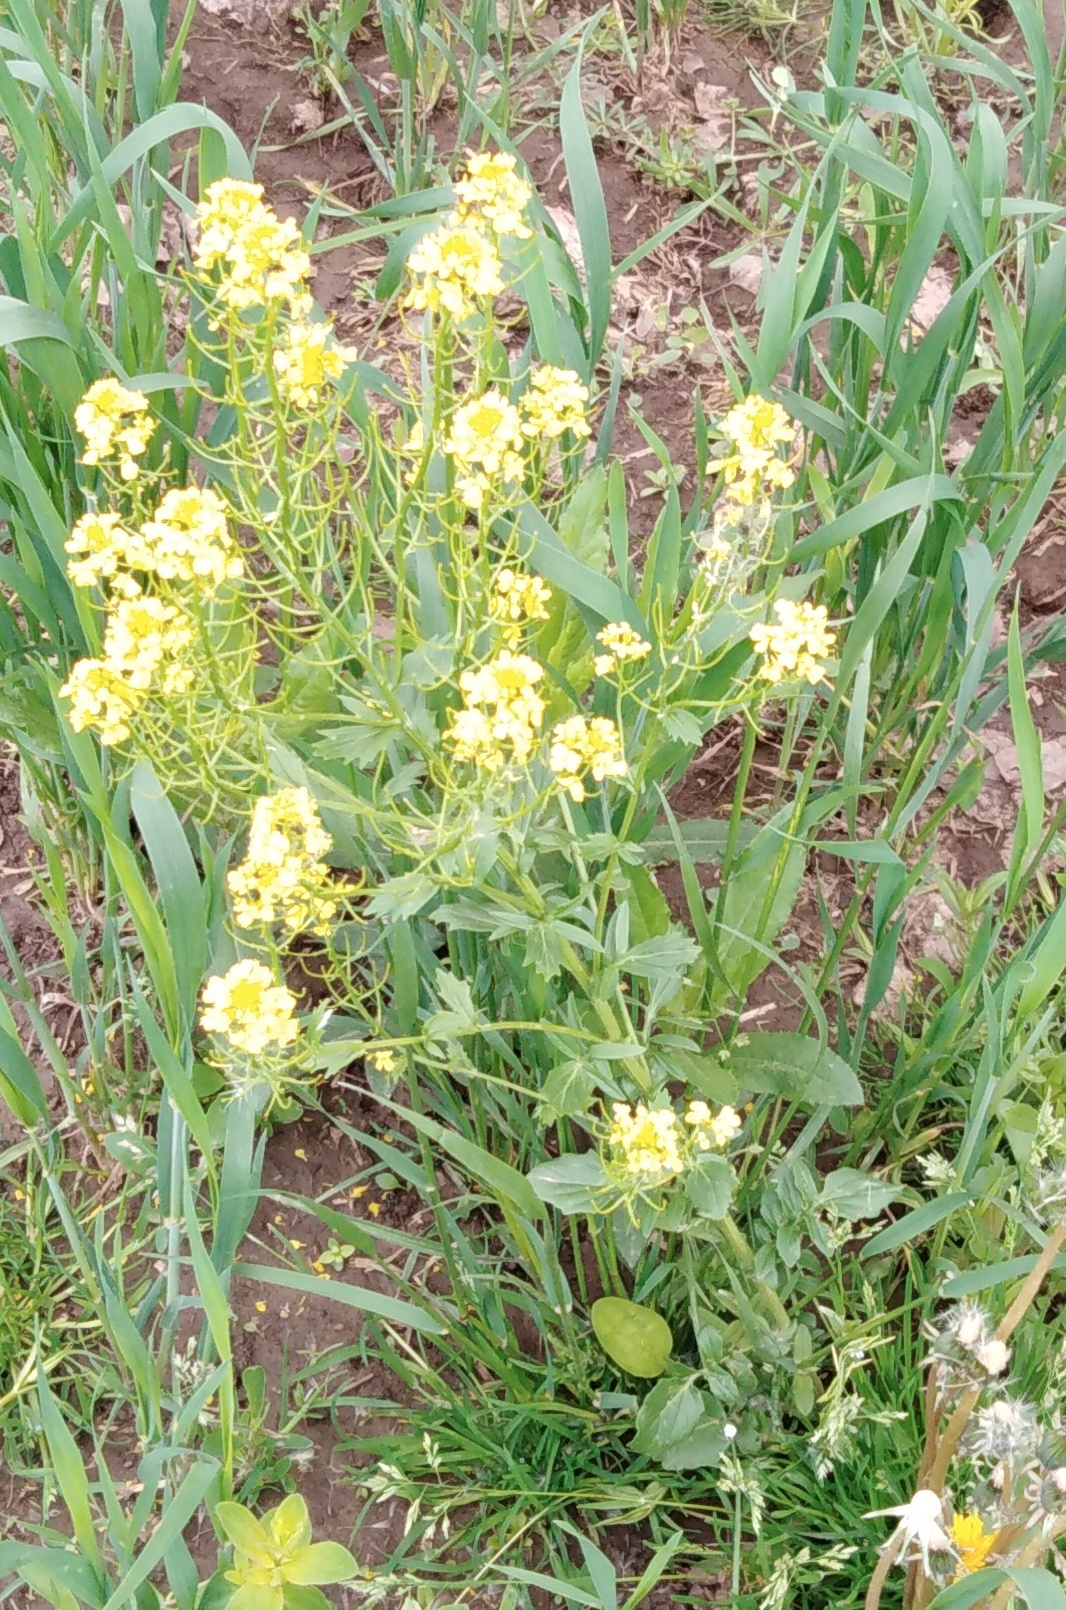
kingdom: Plantae
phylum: Tracheophyta
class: Magnoliopsida
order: Brassicales
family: Brassicaceae
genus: Barbarea
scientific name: Barbarea vulgaris
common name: Cressy-greens
